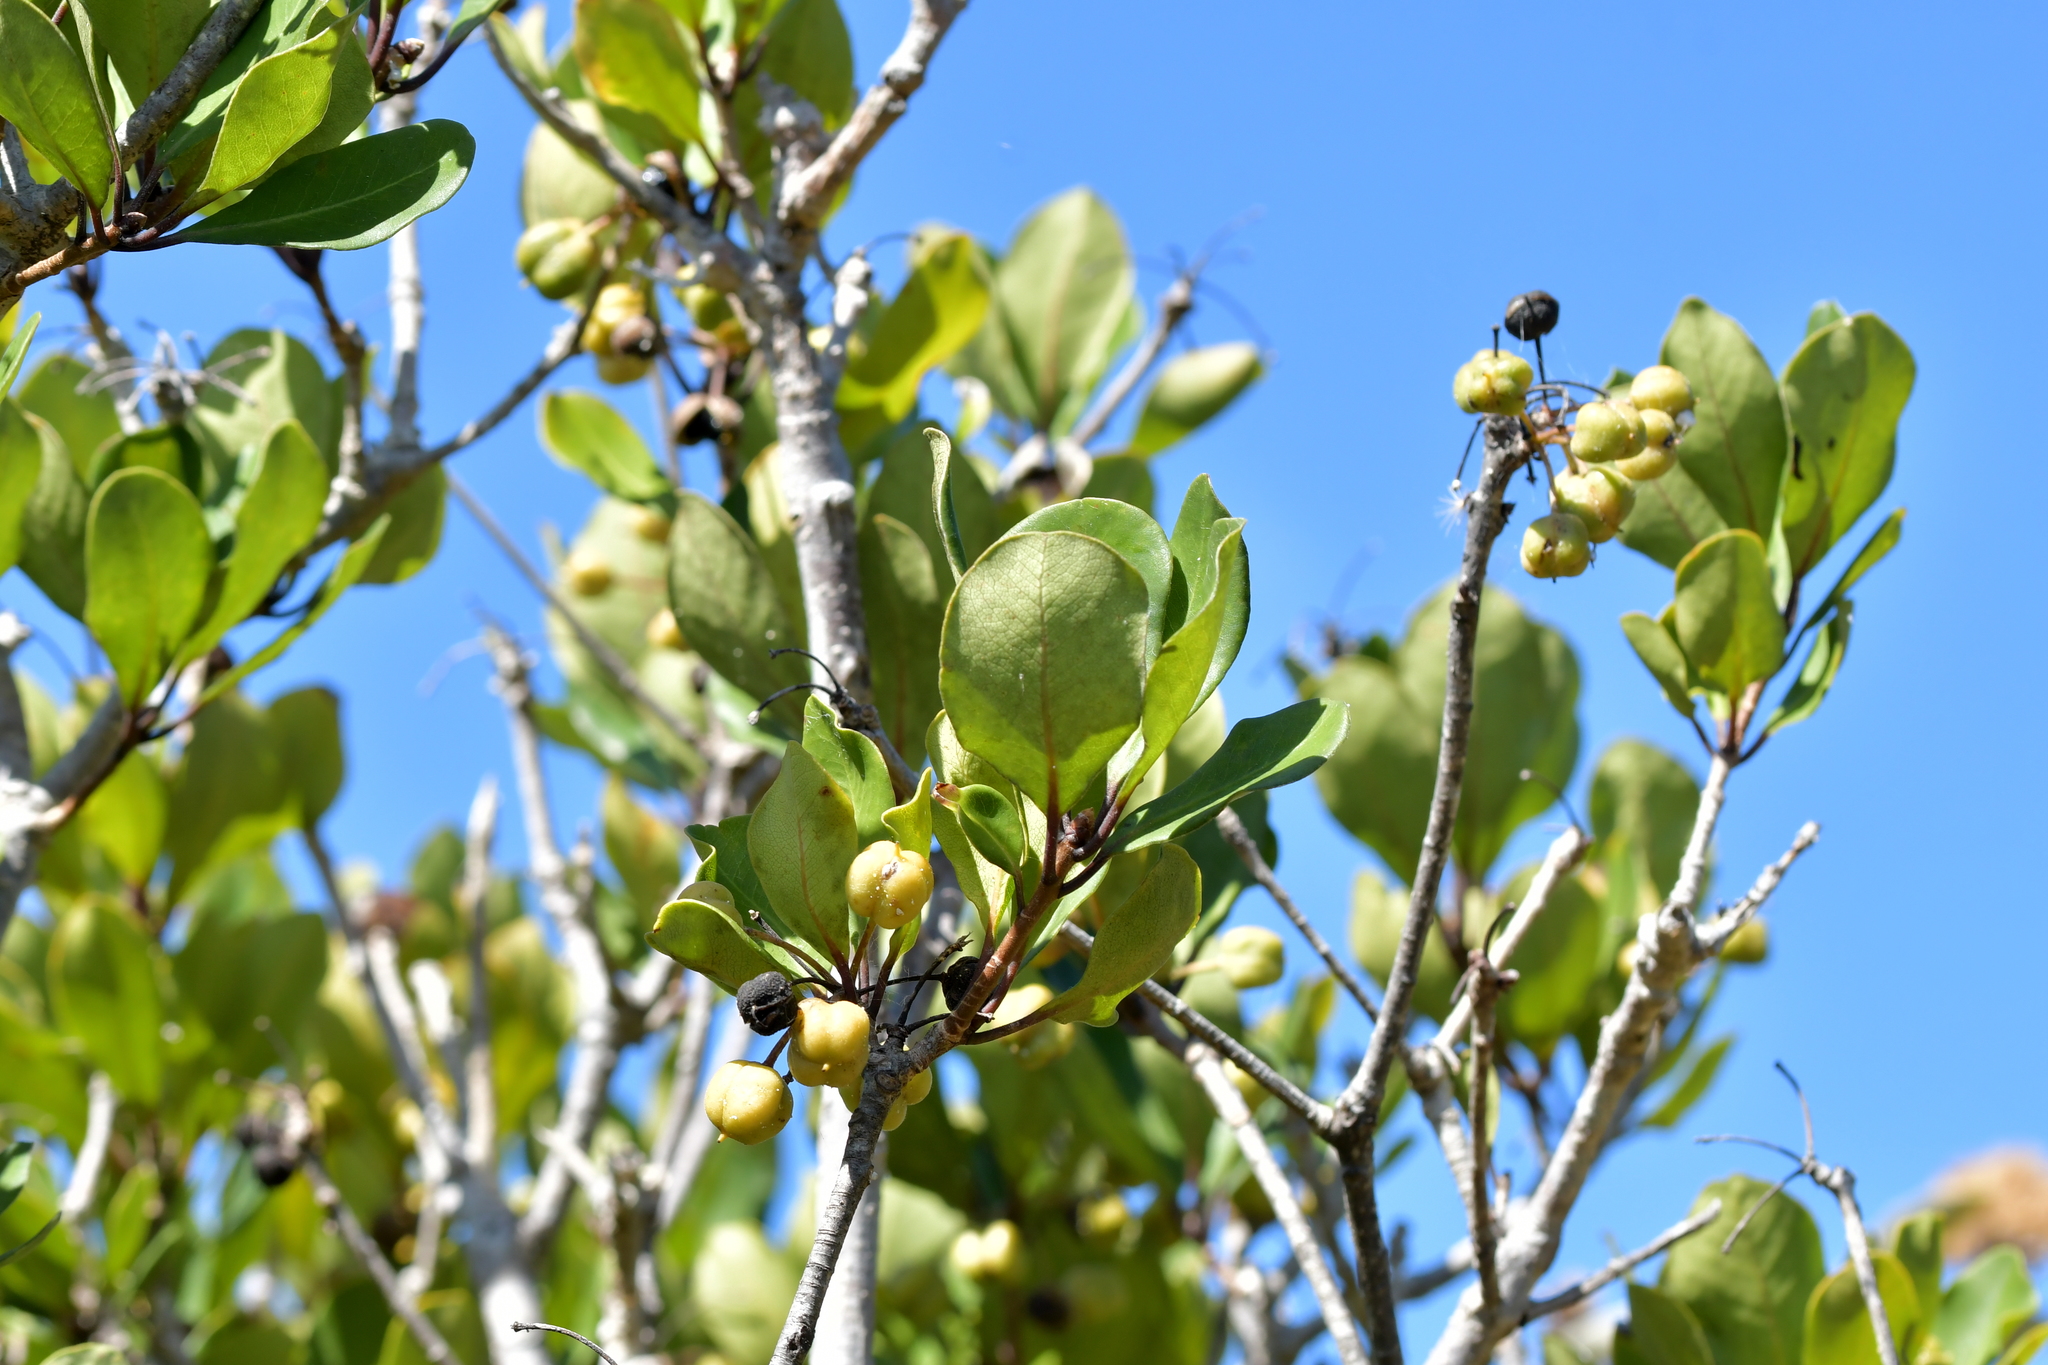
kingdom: Plantae
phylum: Tracheophyta
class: Magnoliopsida
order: Apiales
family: Pittosporaceae
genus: Pittosporum
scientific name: Pittosporum umbellatum
